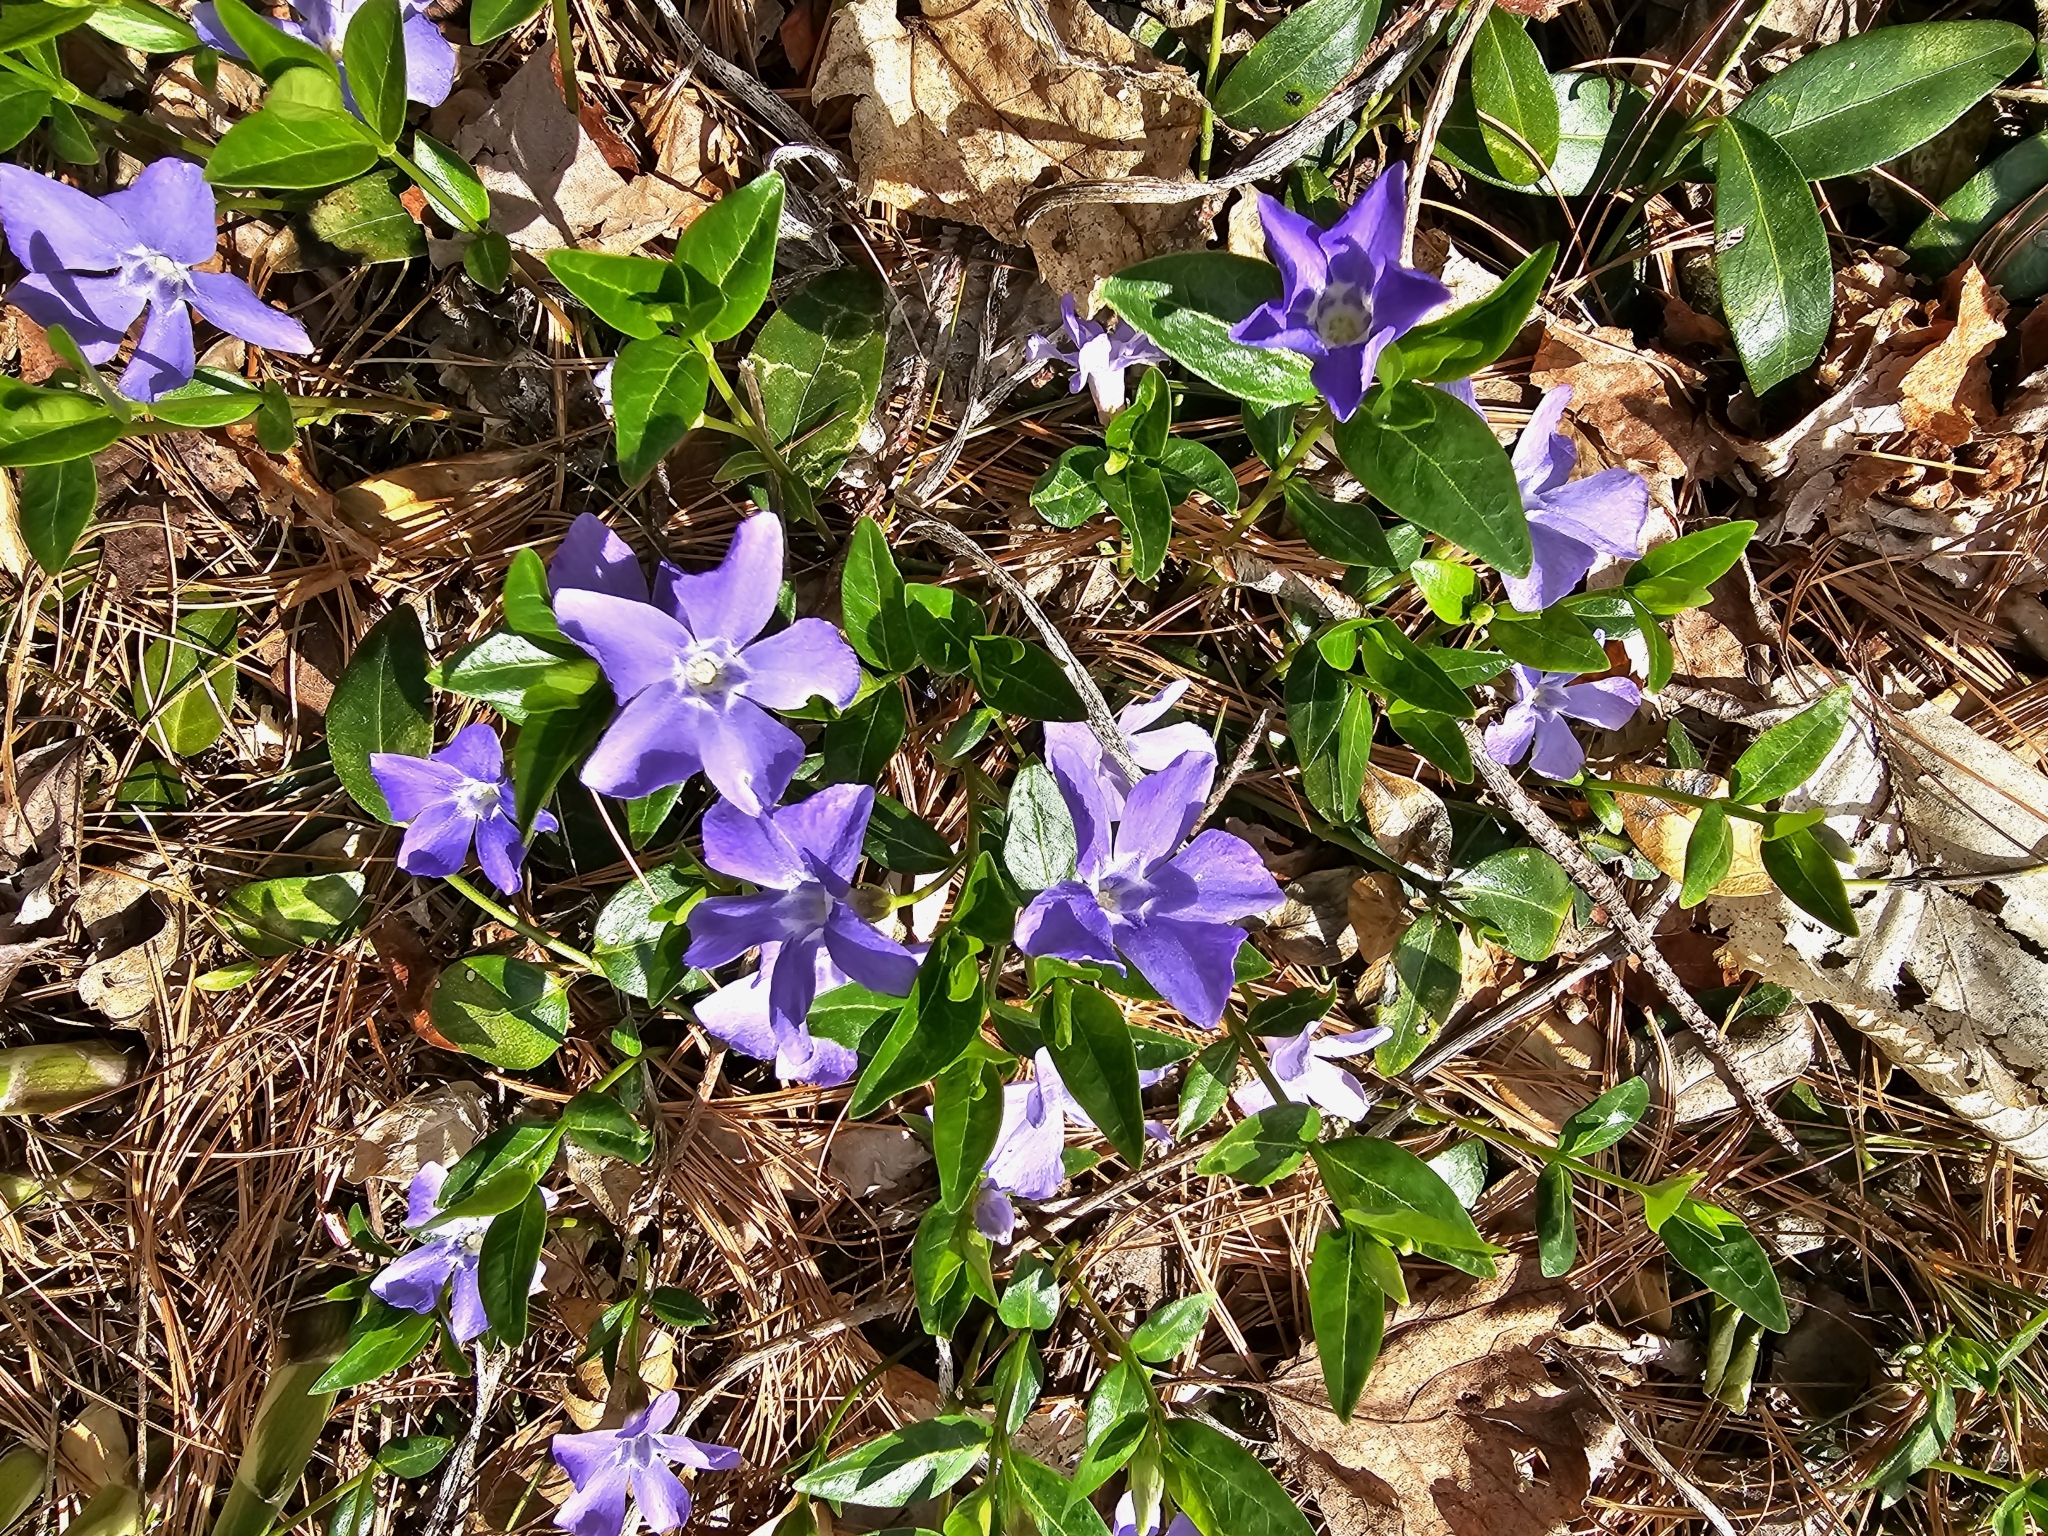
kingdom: Plantae
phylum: Tracheophyta
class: Magnoliopsida
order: Gentianales
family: Apocynaceae
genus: Vinca
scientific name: Vinca minor
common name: Lesser periwinkle
